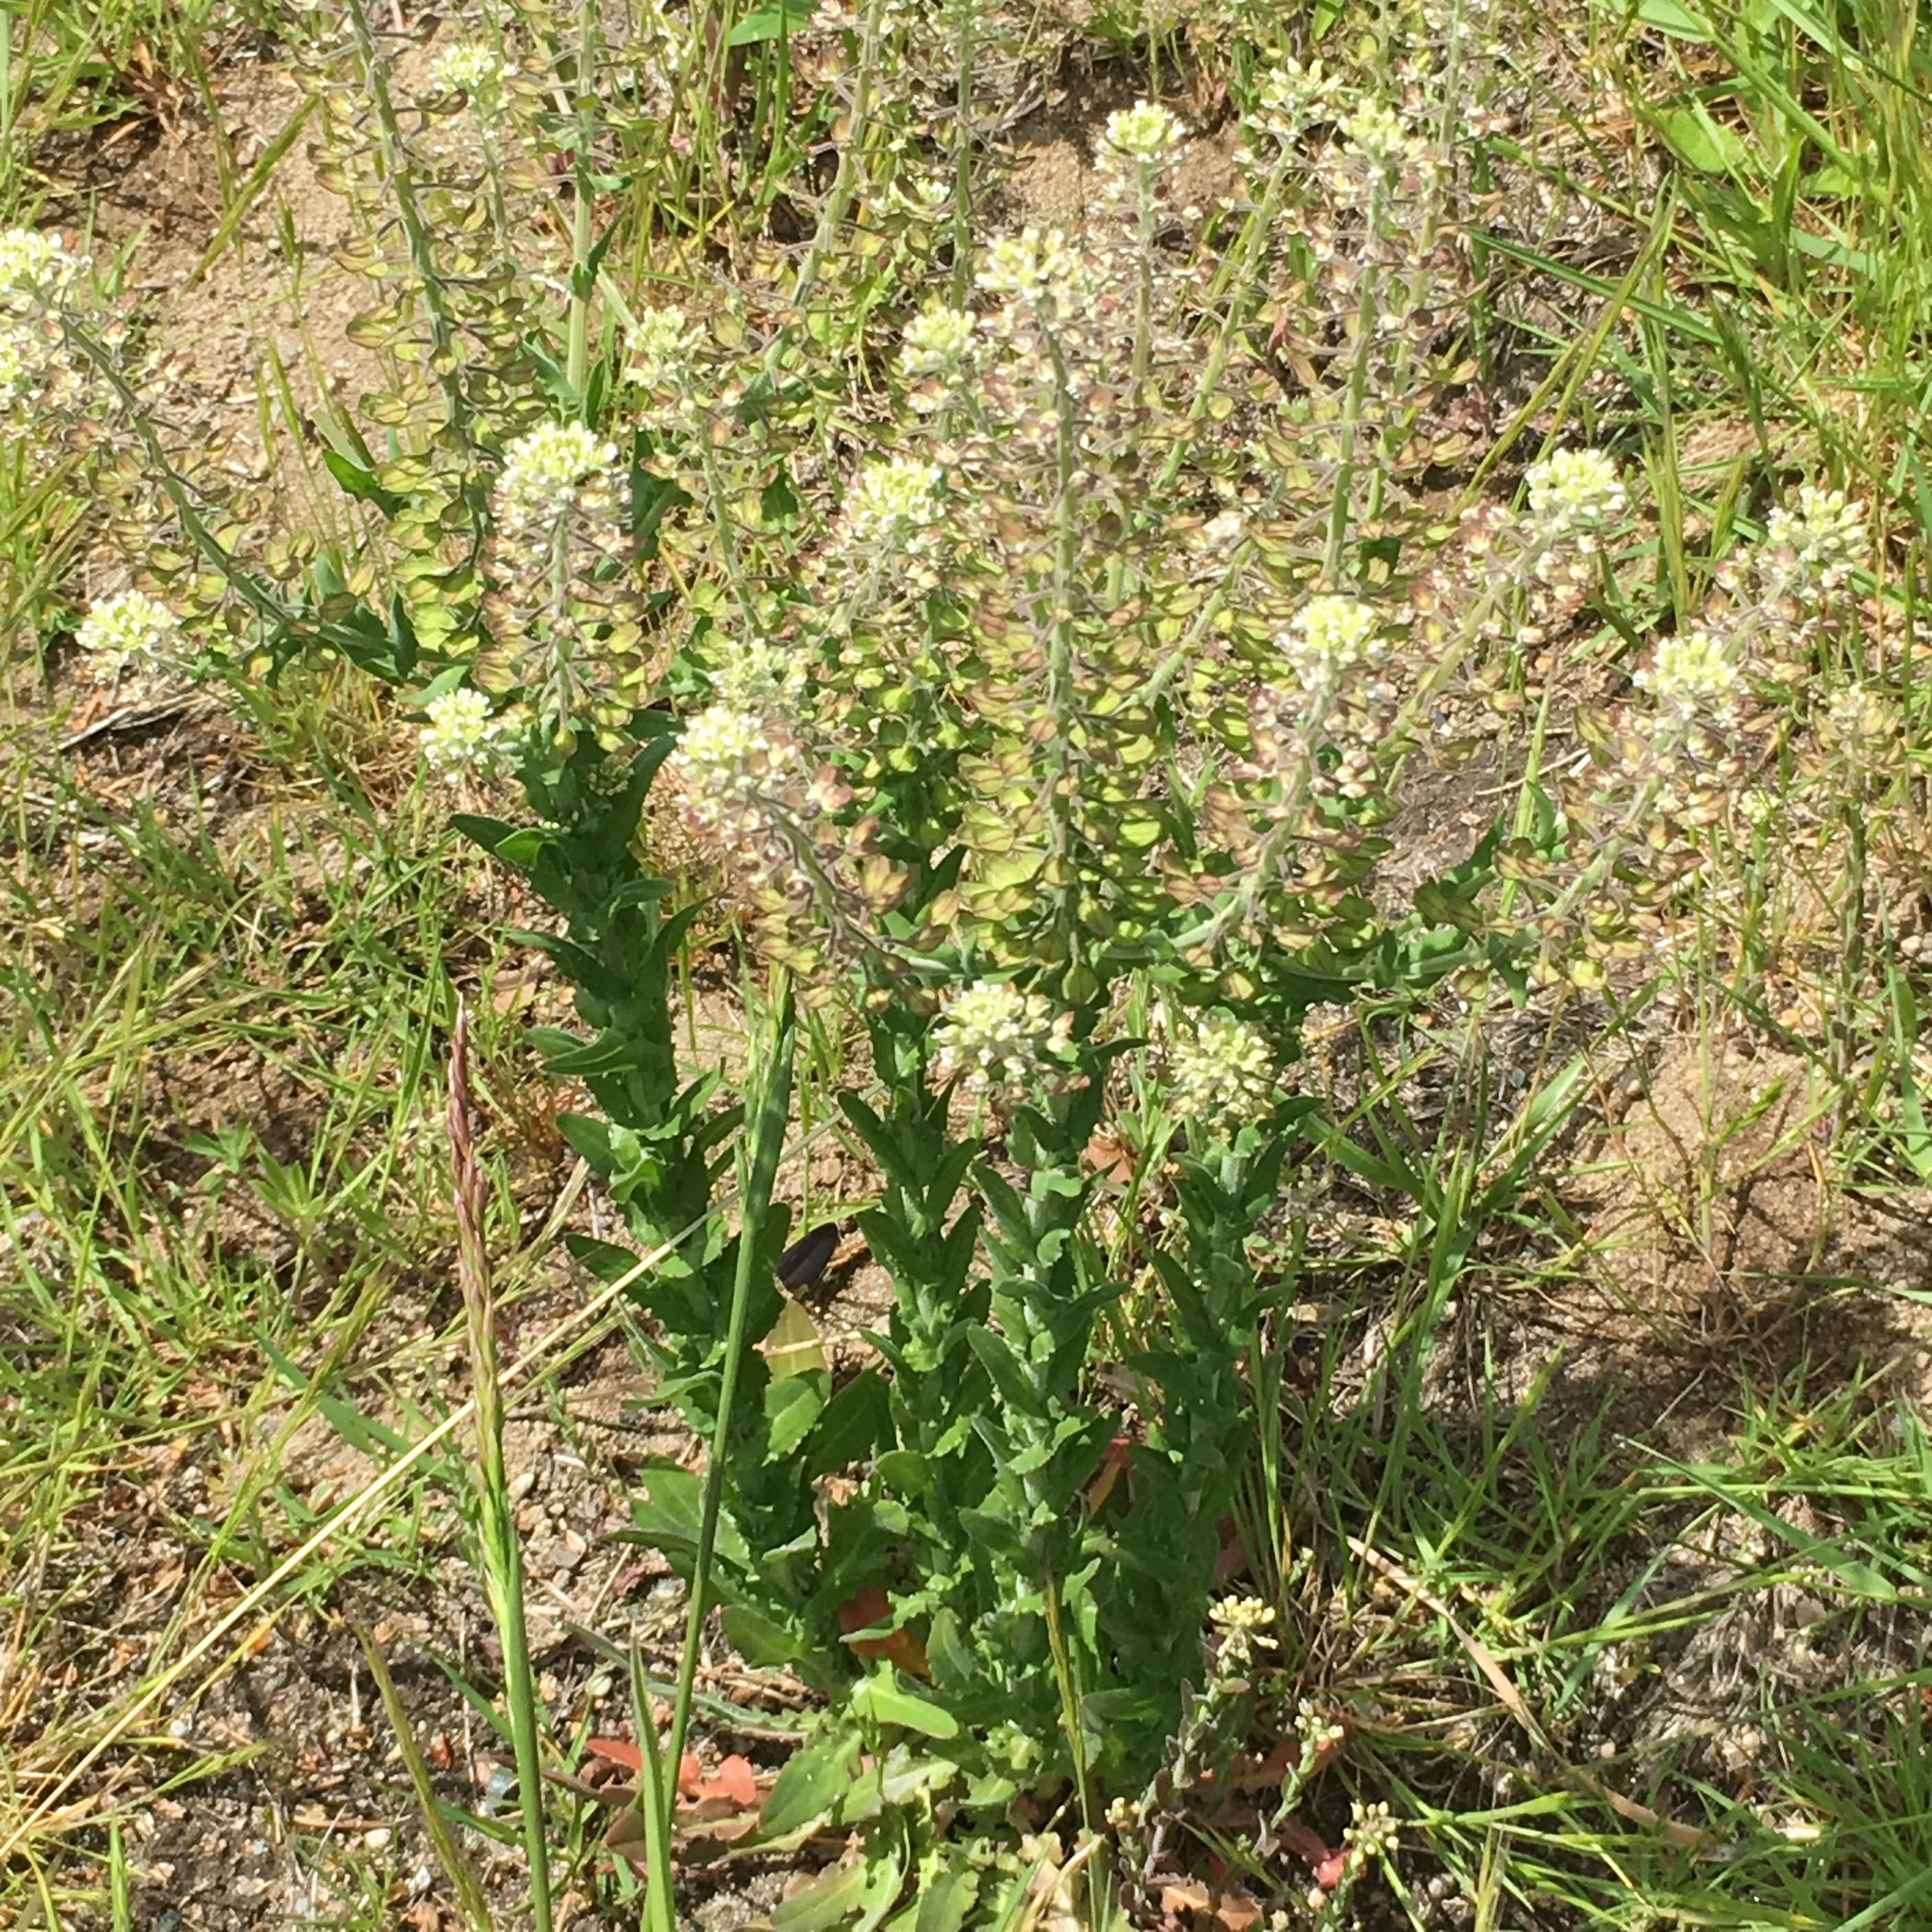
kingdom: Plantae
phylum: Tracheophyta
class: Magnoliopsida
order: Brassicales
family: Brassicaceae
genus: Lepidium
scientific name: Lepidium campestre
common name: Field pepperwort
